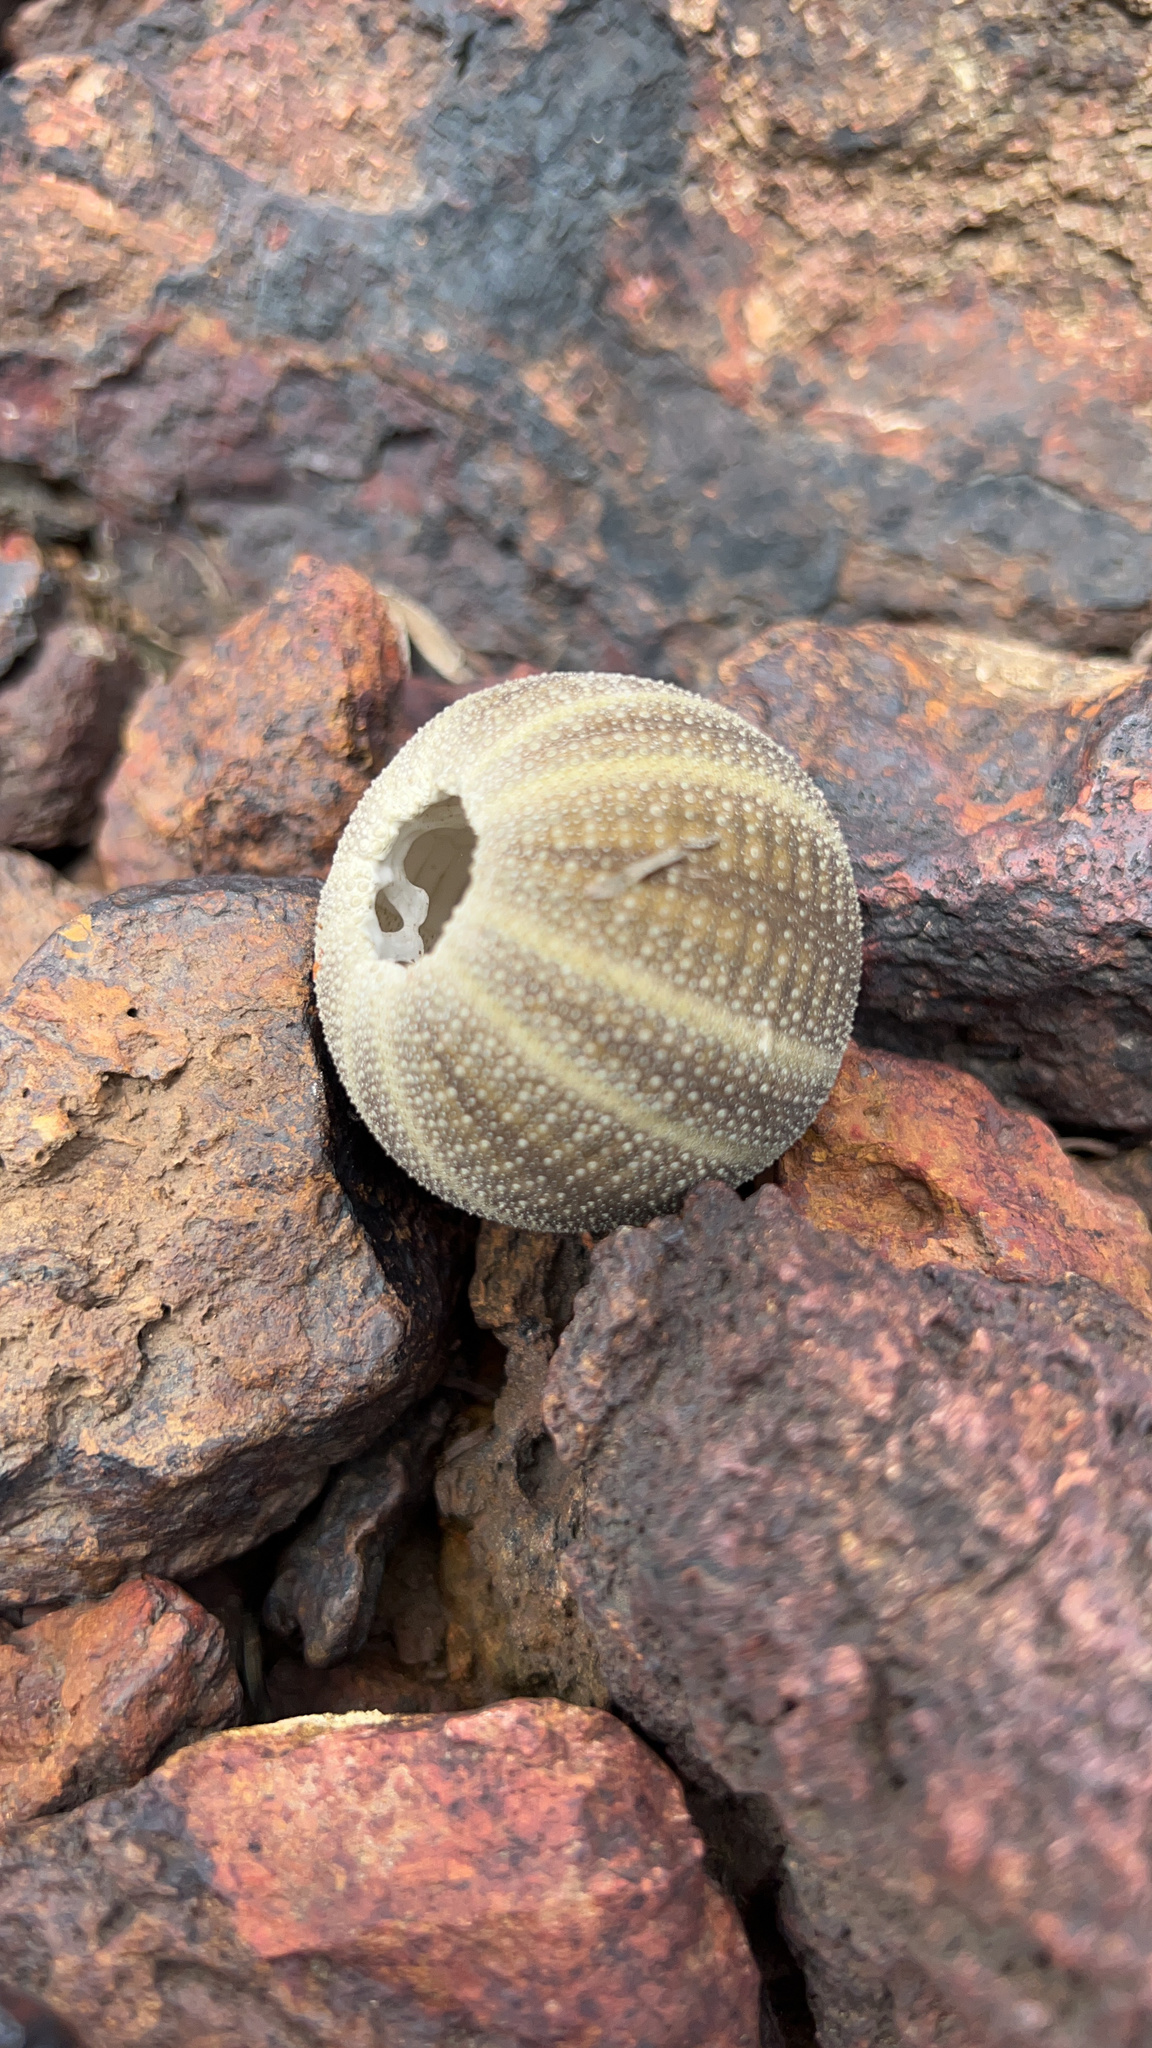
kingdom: Animalia
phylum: Echinodermata
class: Echinoidea
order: Camarodonta
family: Temnopleuridae
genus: Amblypneustes
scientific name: Amblypneustes ovum
